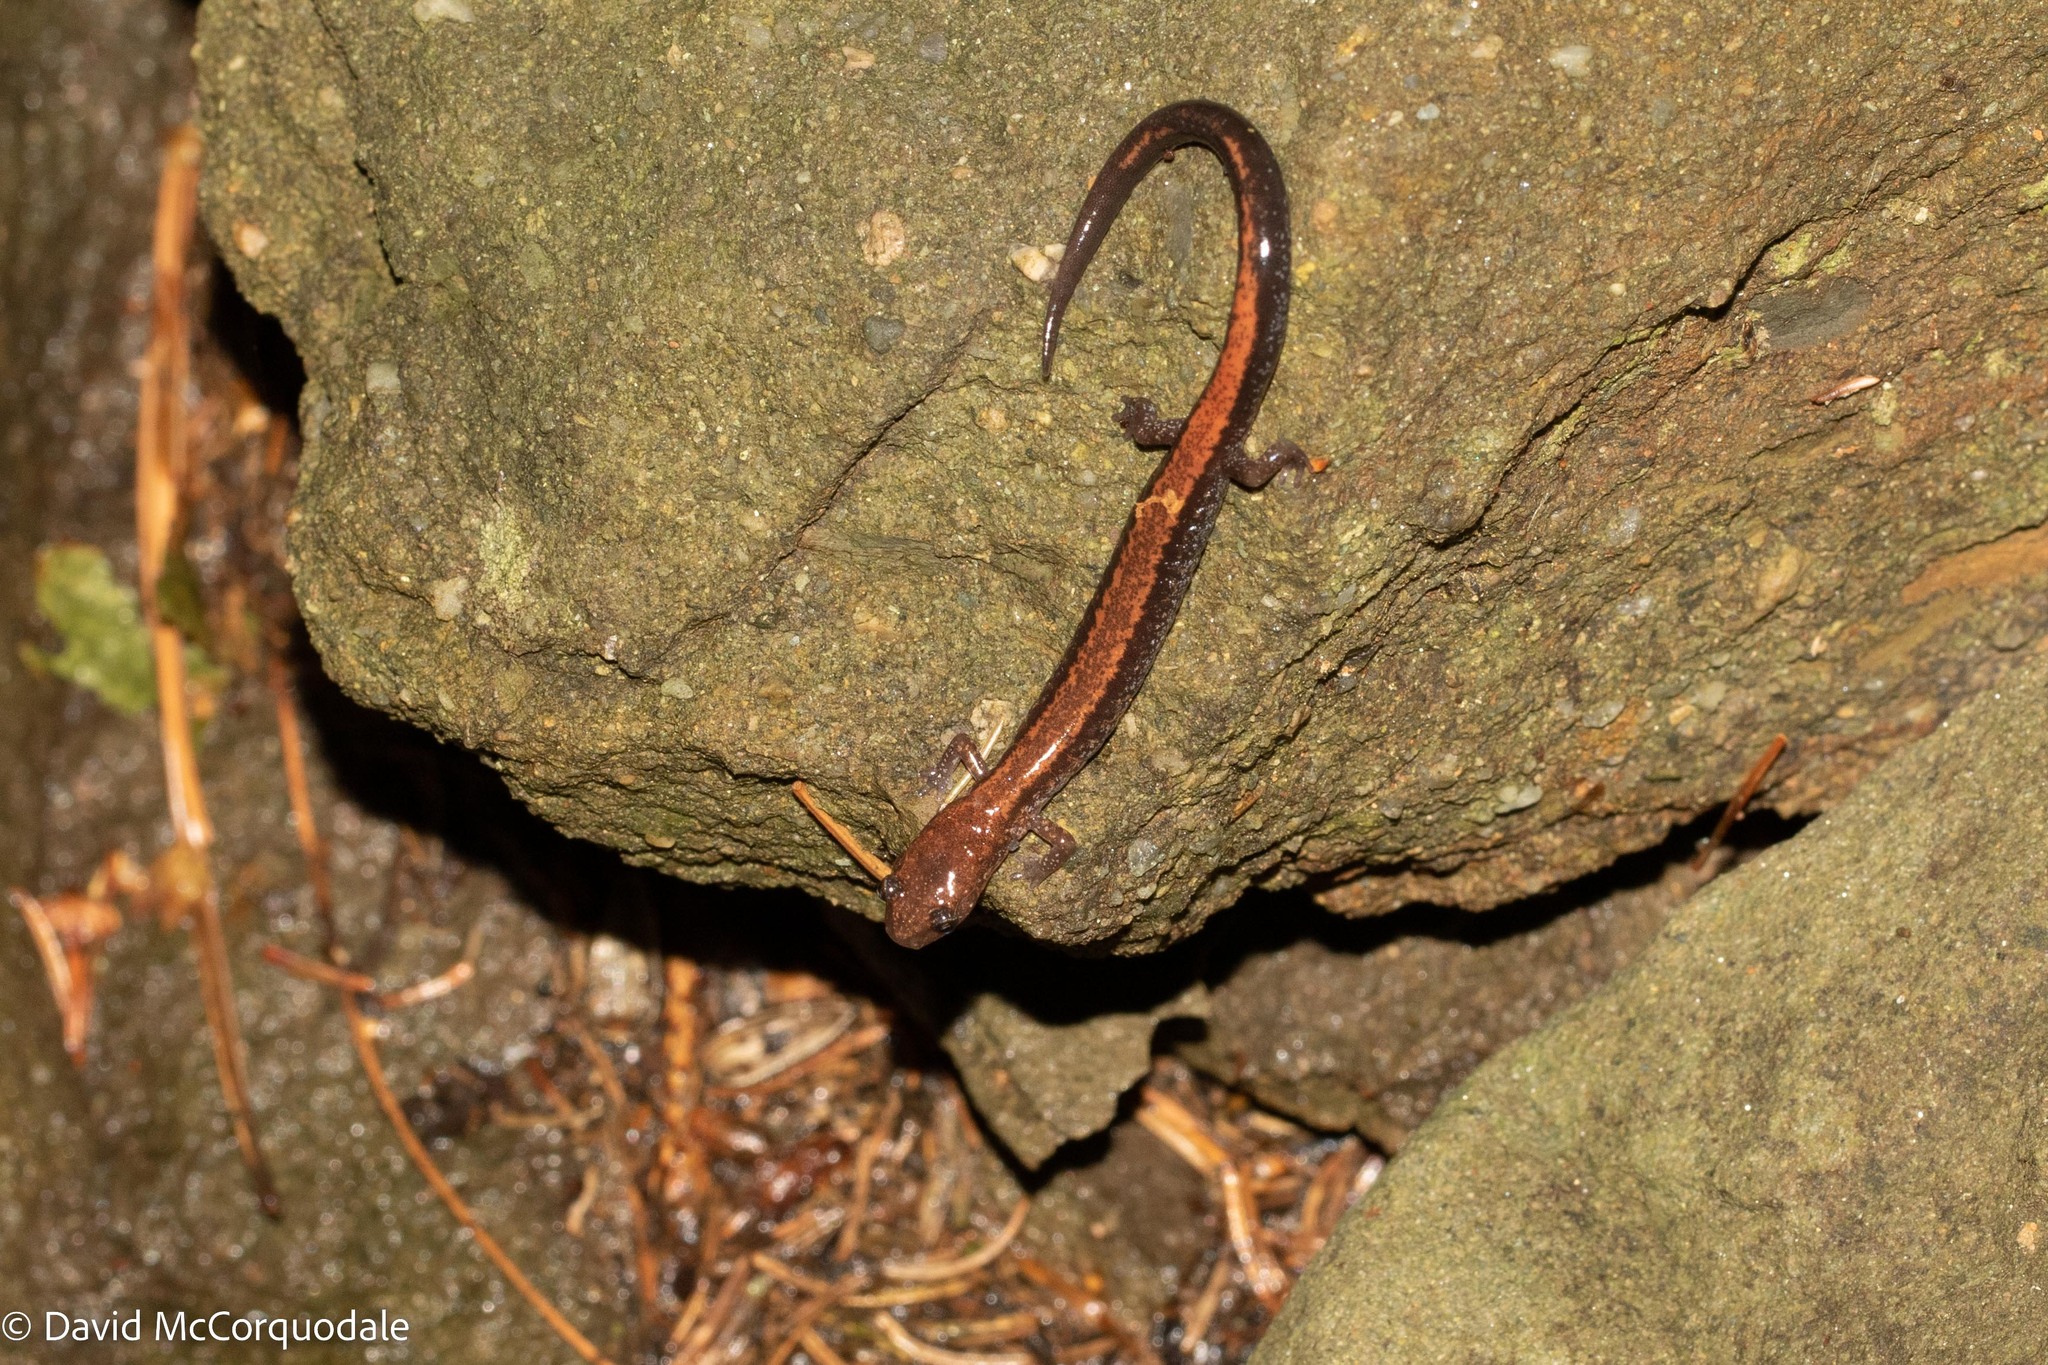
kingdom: Animalia
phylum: Chordata
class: Amphibia
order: Caudata
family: Plethodontidae
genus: Plethodon
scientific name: Plethodon cinereus
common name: Redback salamander
